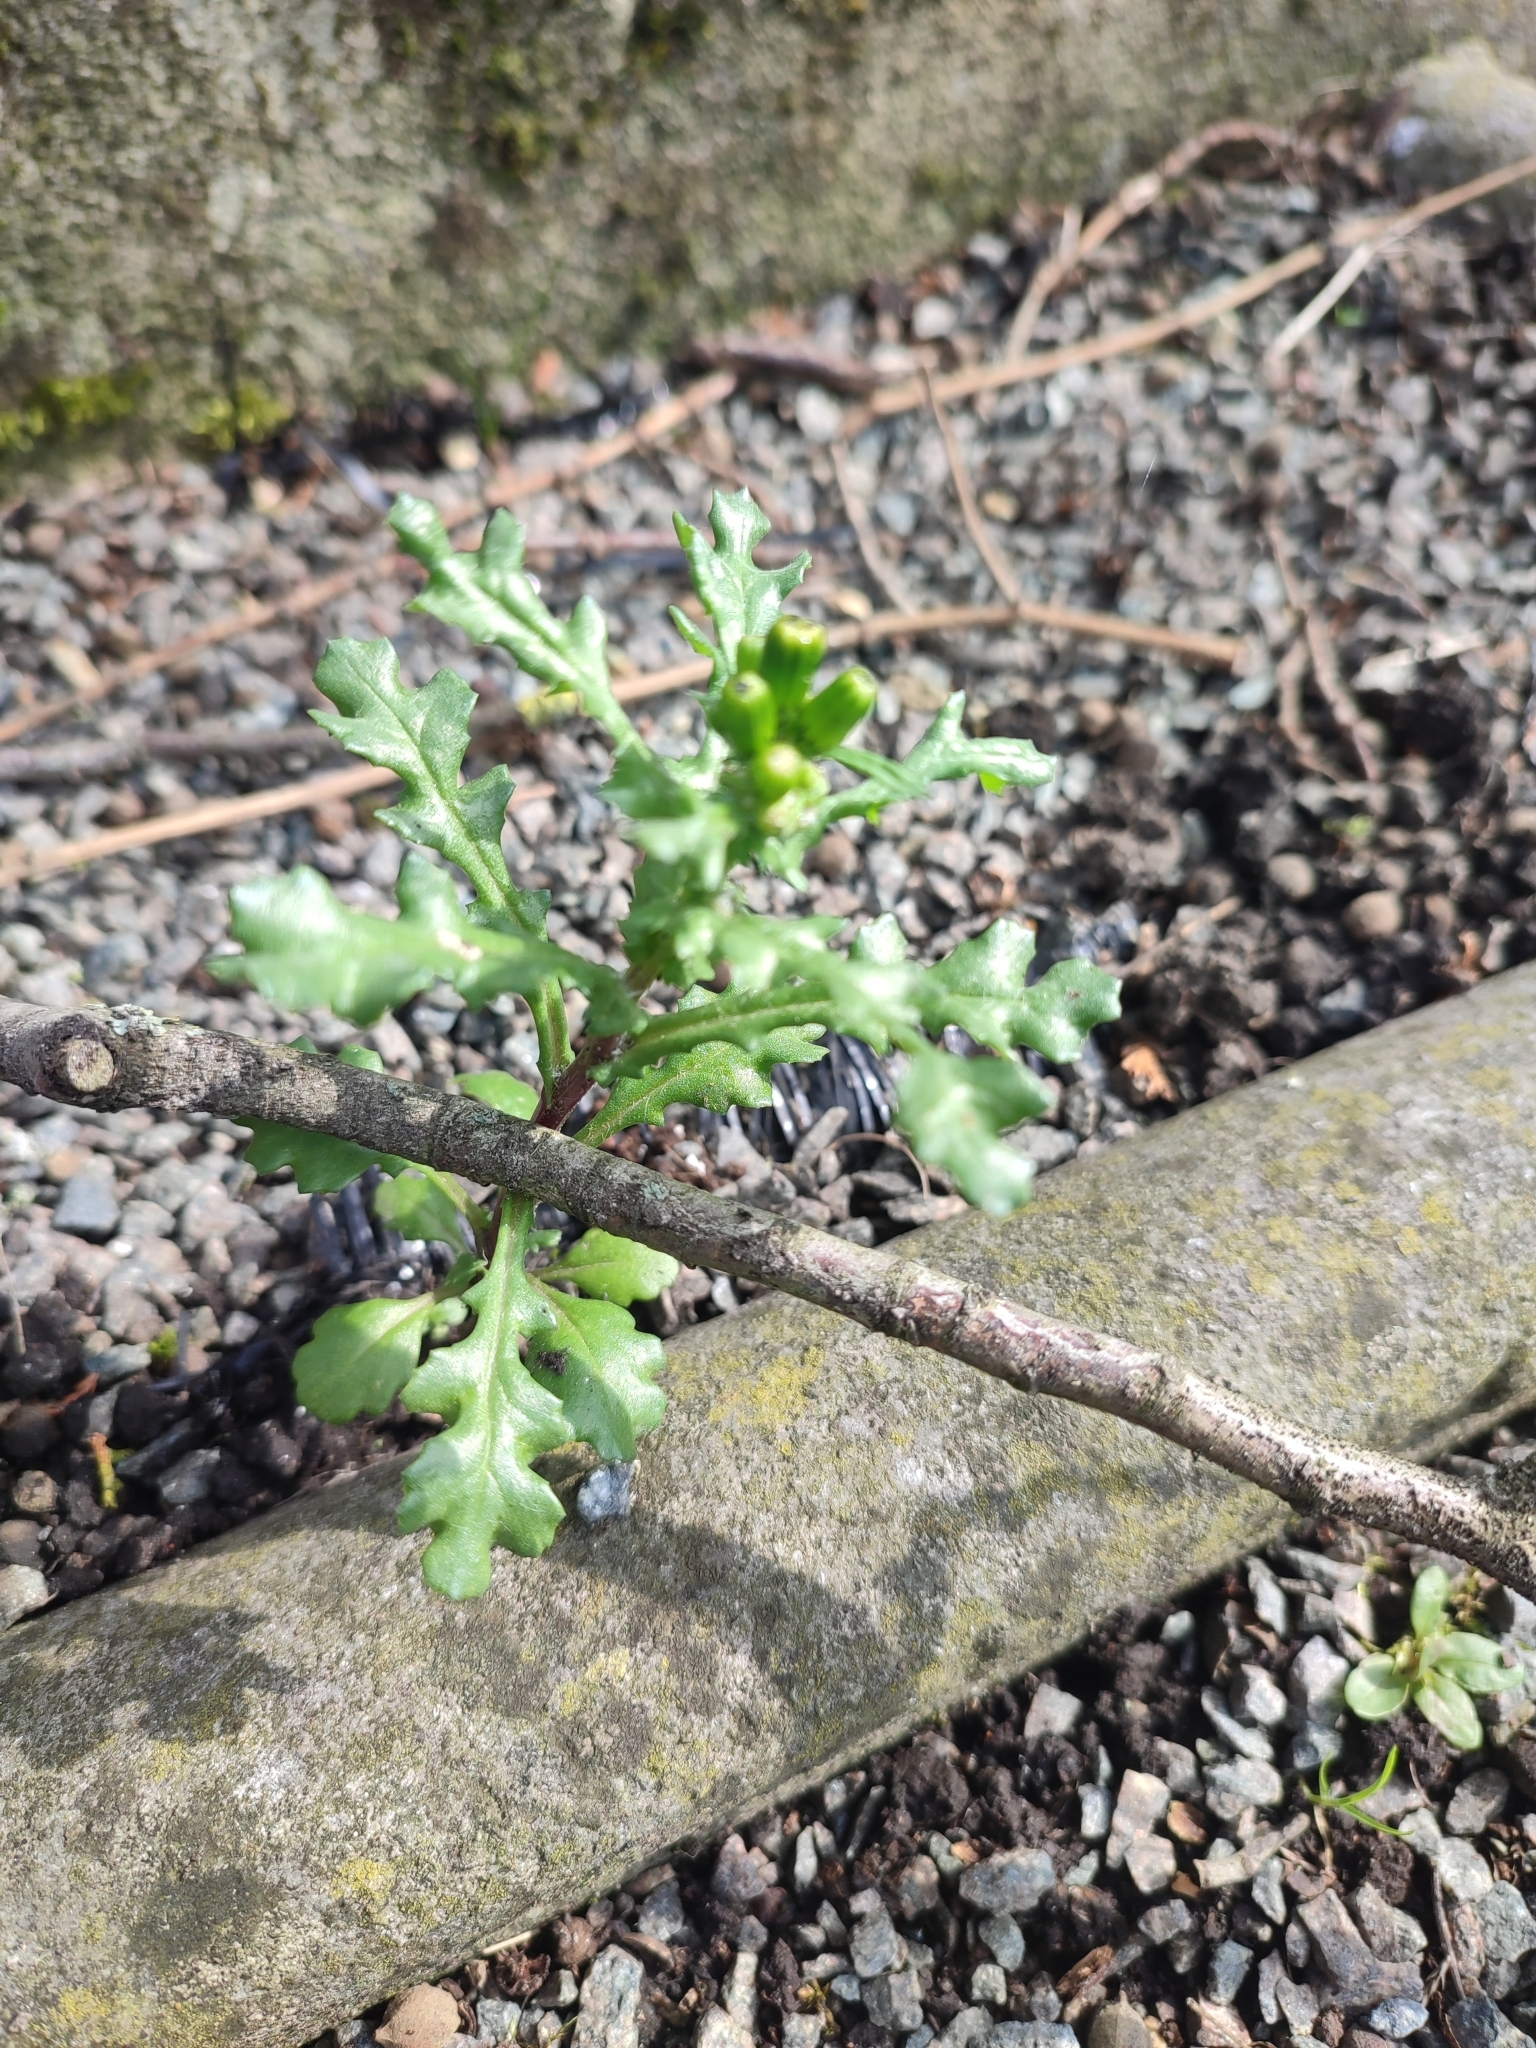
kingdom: Plantae
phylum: Tracheophyta
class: Magnoliopsida
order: Asterales
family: Asteraceae
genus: Senecio
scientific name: Senecio vulgaris
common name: Old-man-in-the-spring
